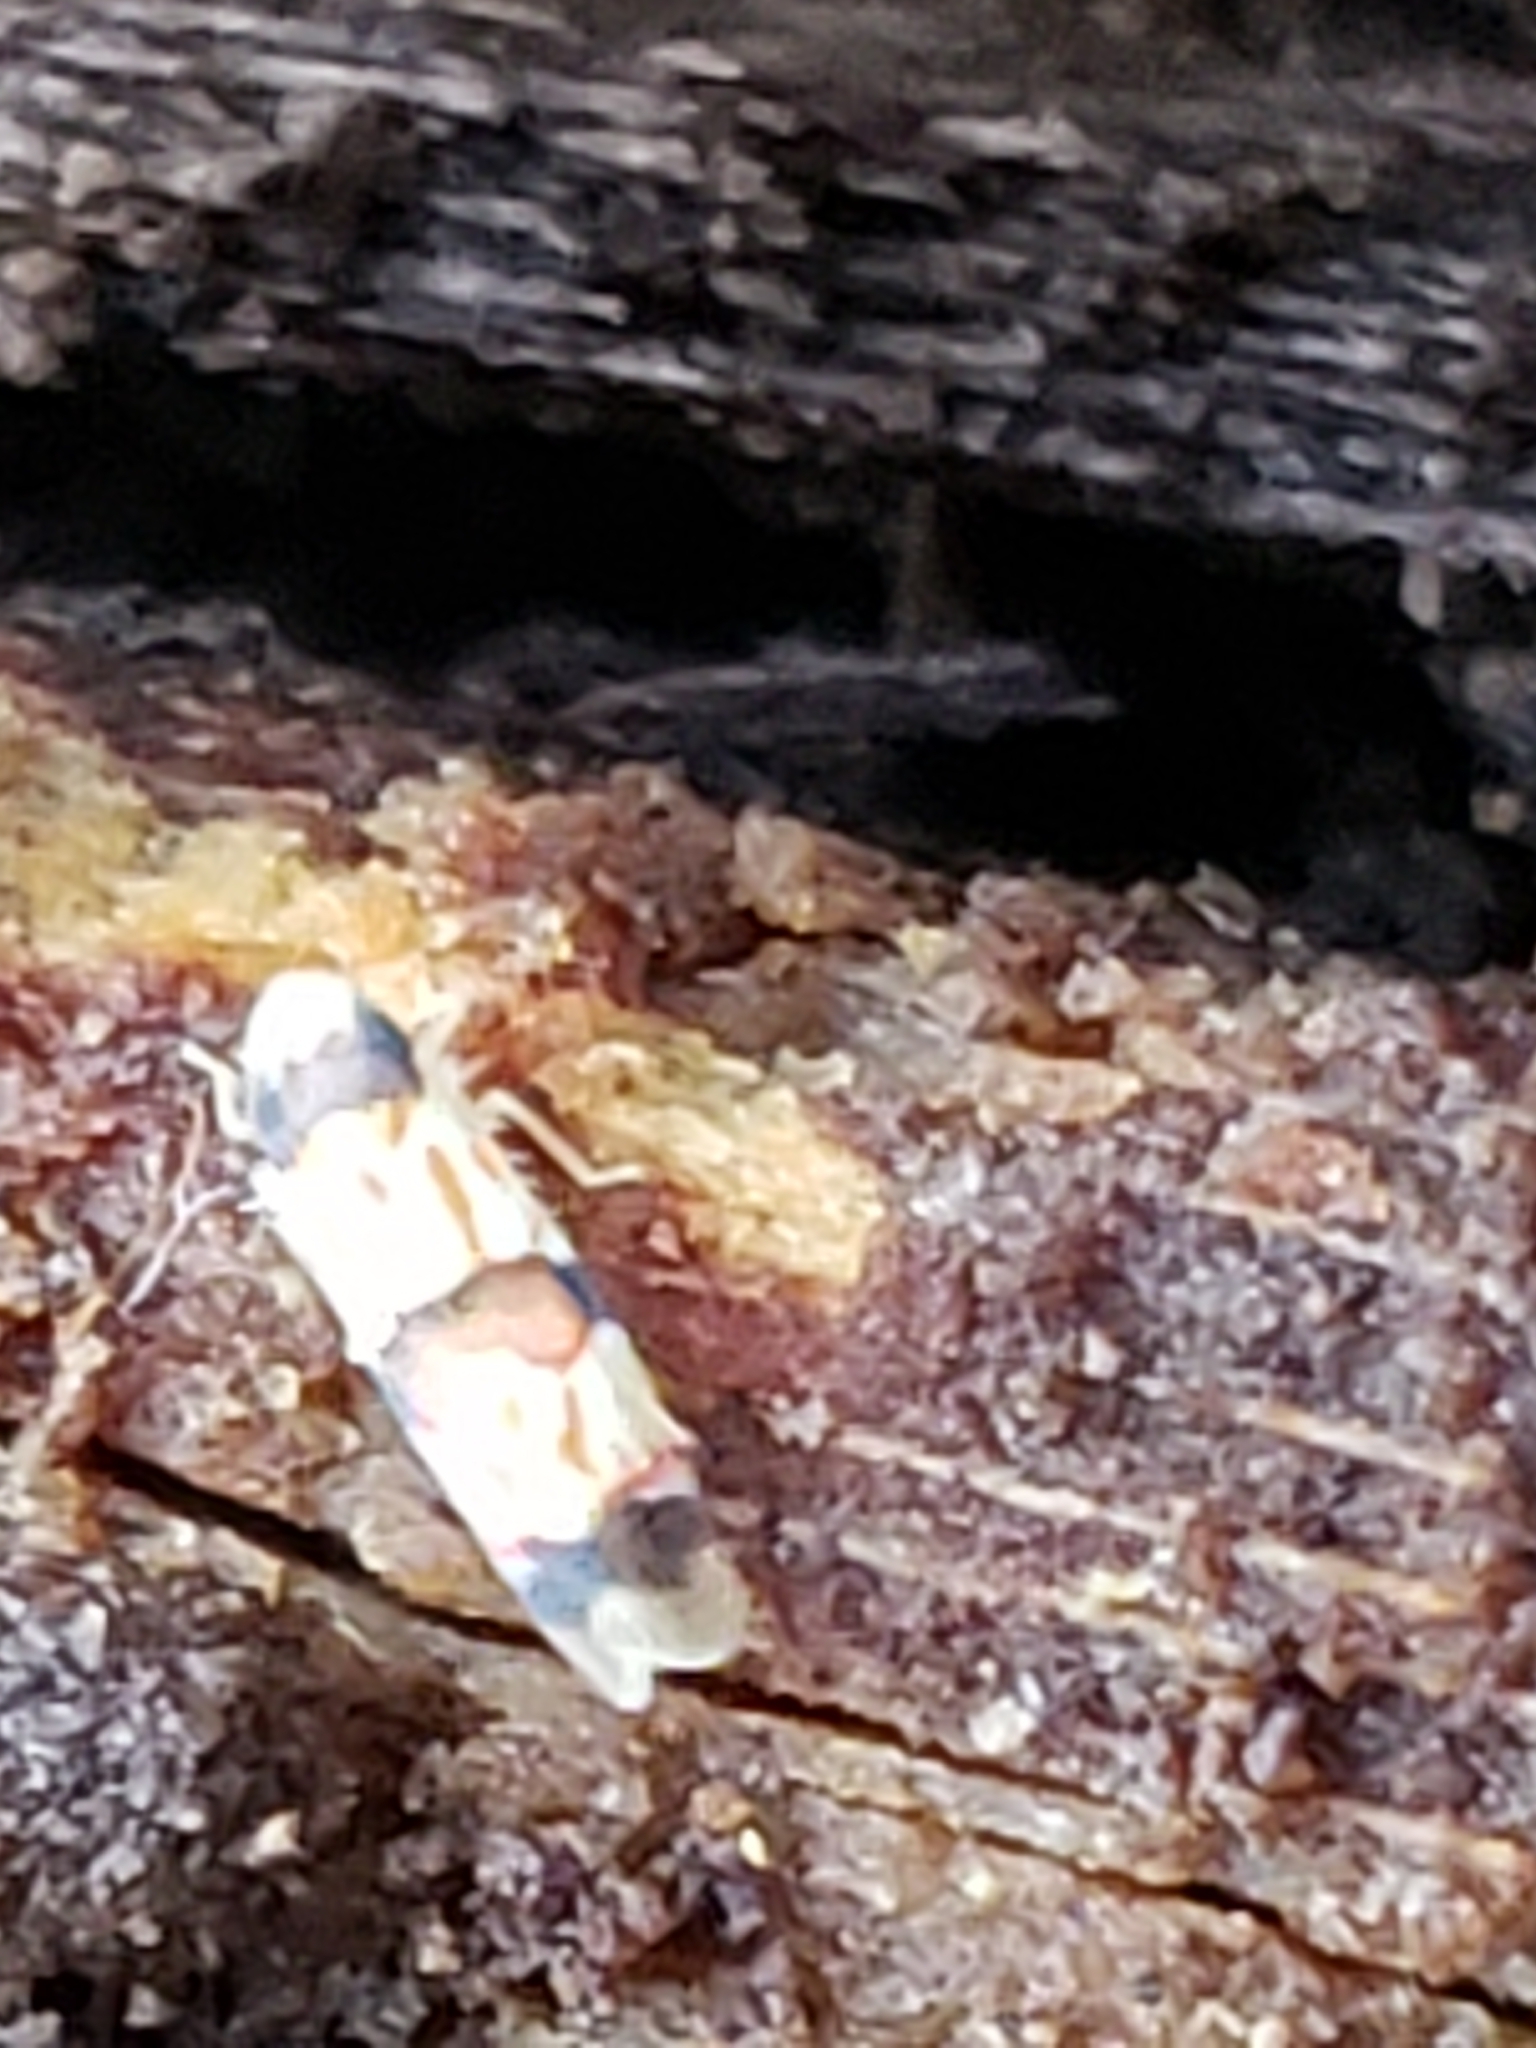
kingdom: Animalia
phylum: Arthropoda
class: Insecta
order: Hemiptera
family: Cicadellidae
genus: Erythroneura
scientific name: Erythroneura integra
